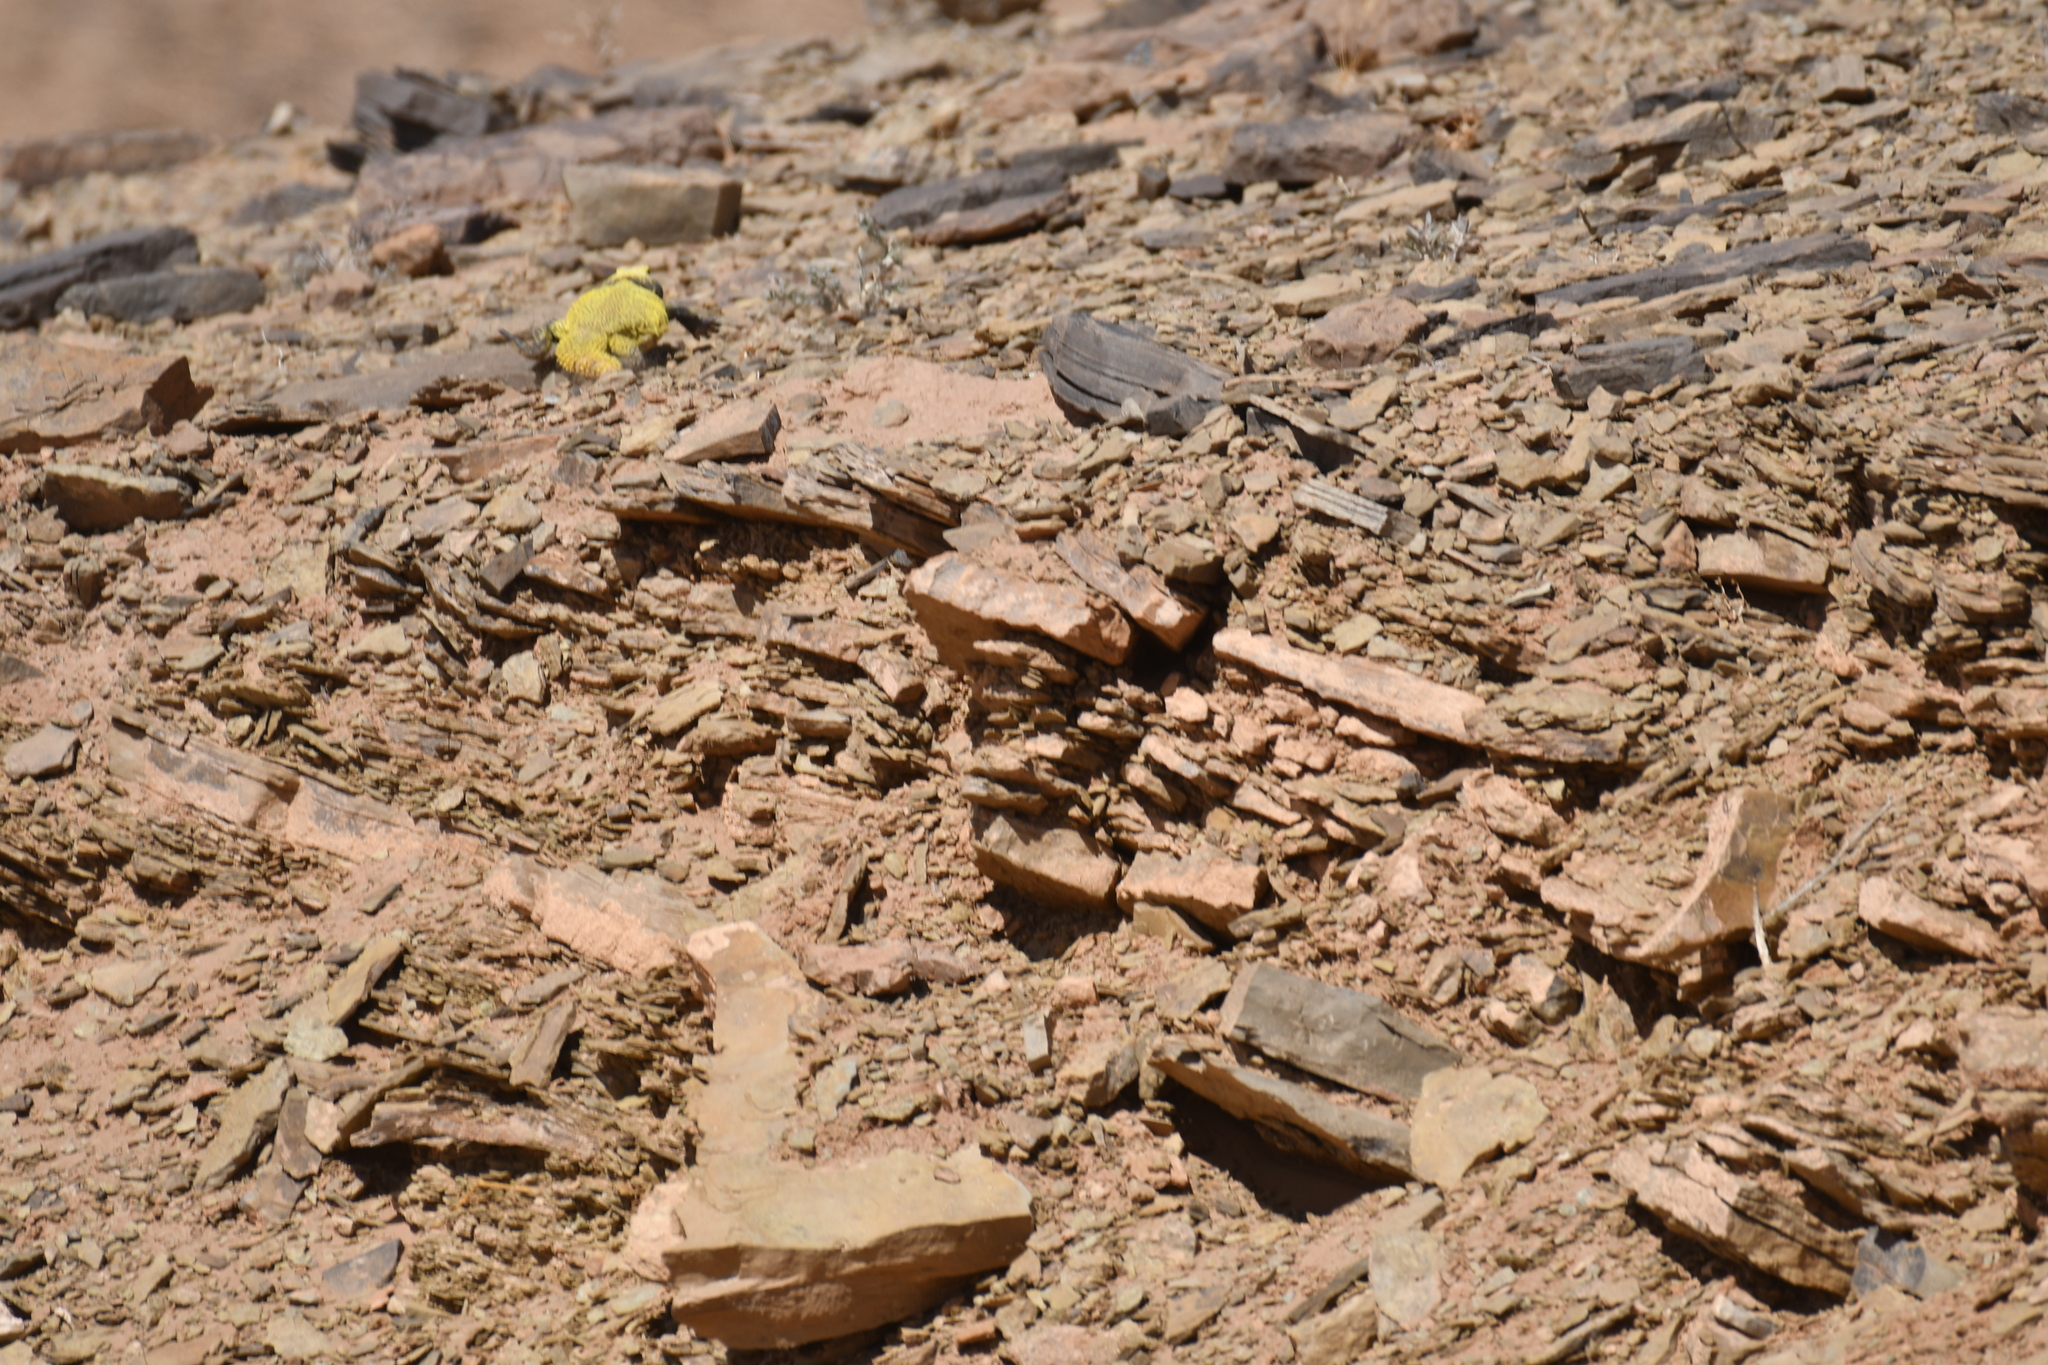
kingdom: Animalia
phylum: Chordata
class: Squamata
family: Agamidae
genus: Uromastyx
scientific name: Uromastyx nigriventris
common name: Moroccan spiny-tailed lizard
